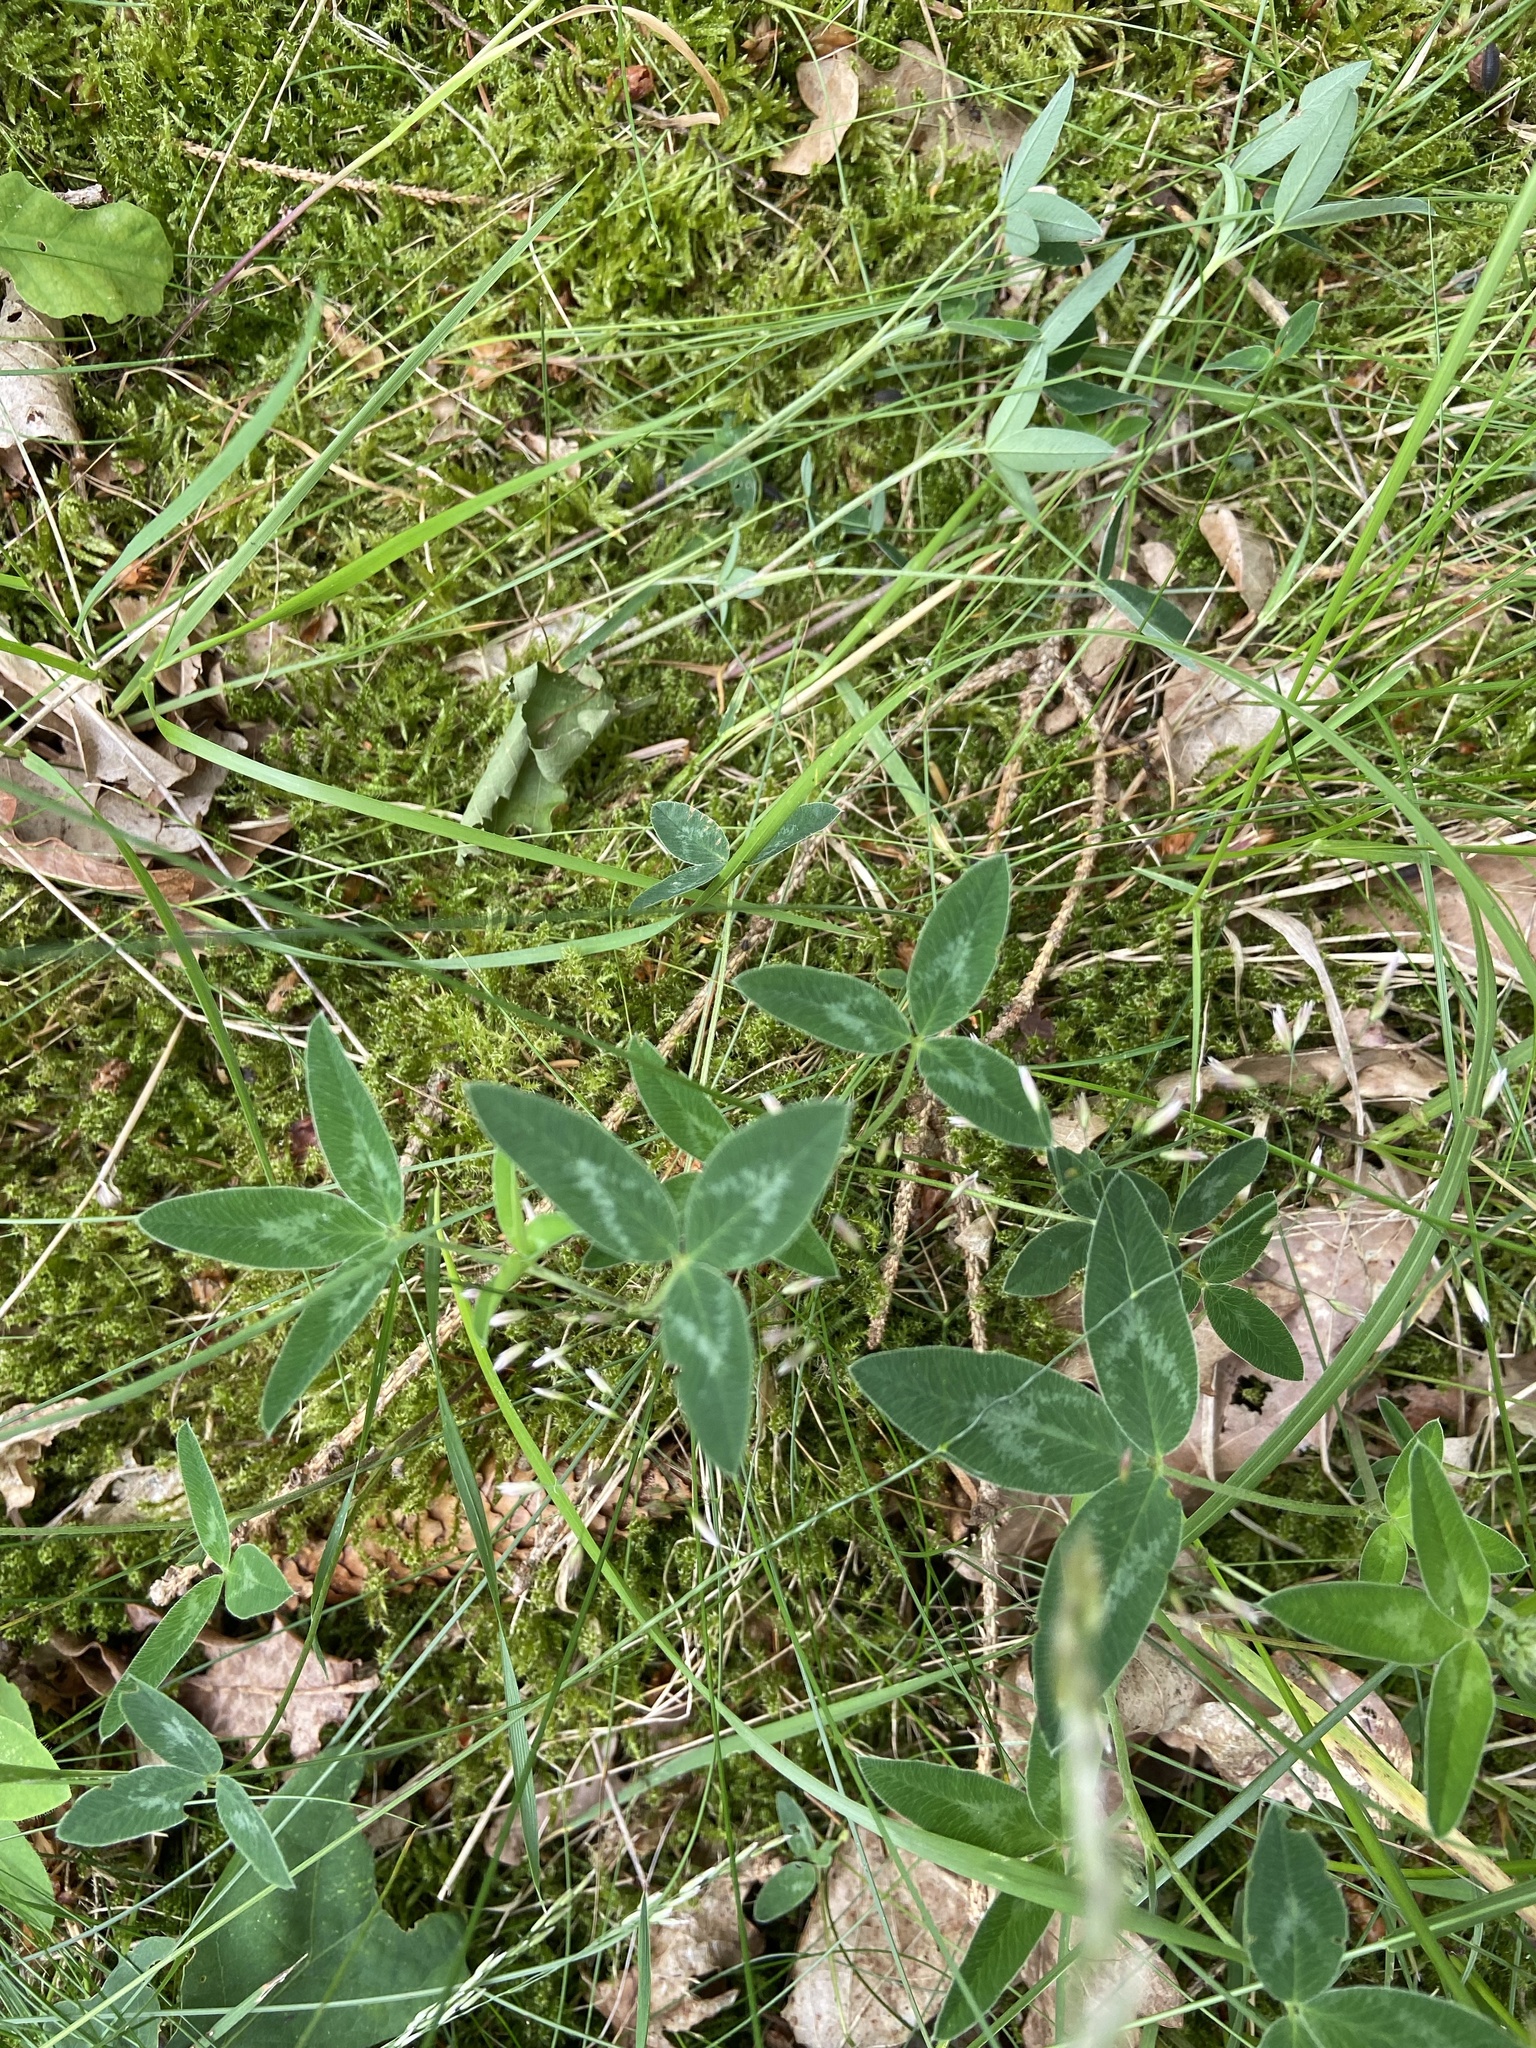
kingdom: Plantae
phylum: Tracheophyta
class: Magnoliopsida
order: Fabales
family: Fabaceae
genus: Trifolium
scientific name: Trifolium medium
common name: Zigzag clover
